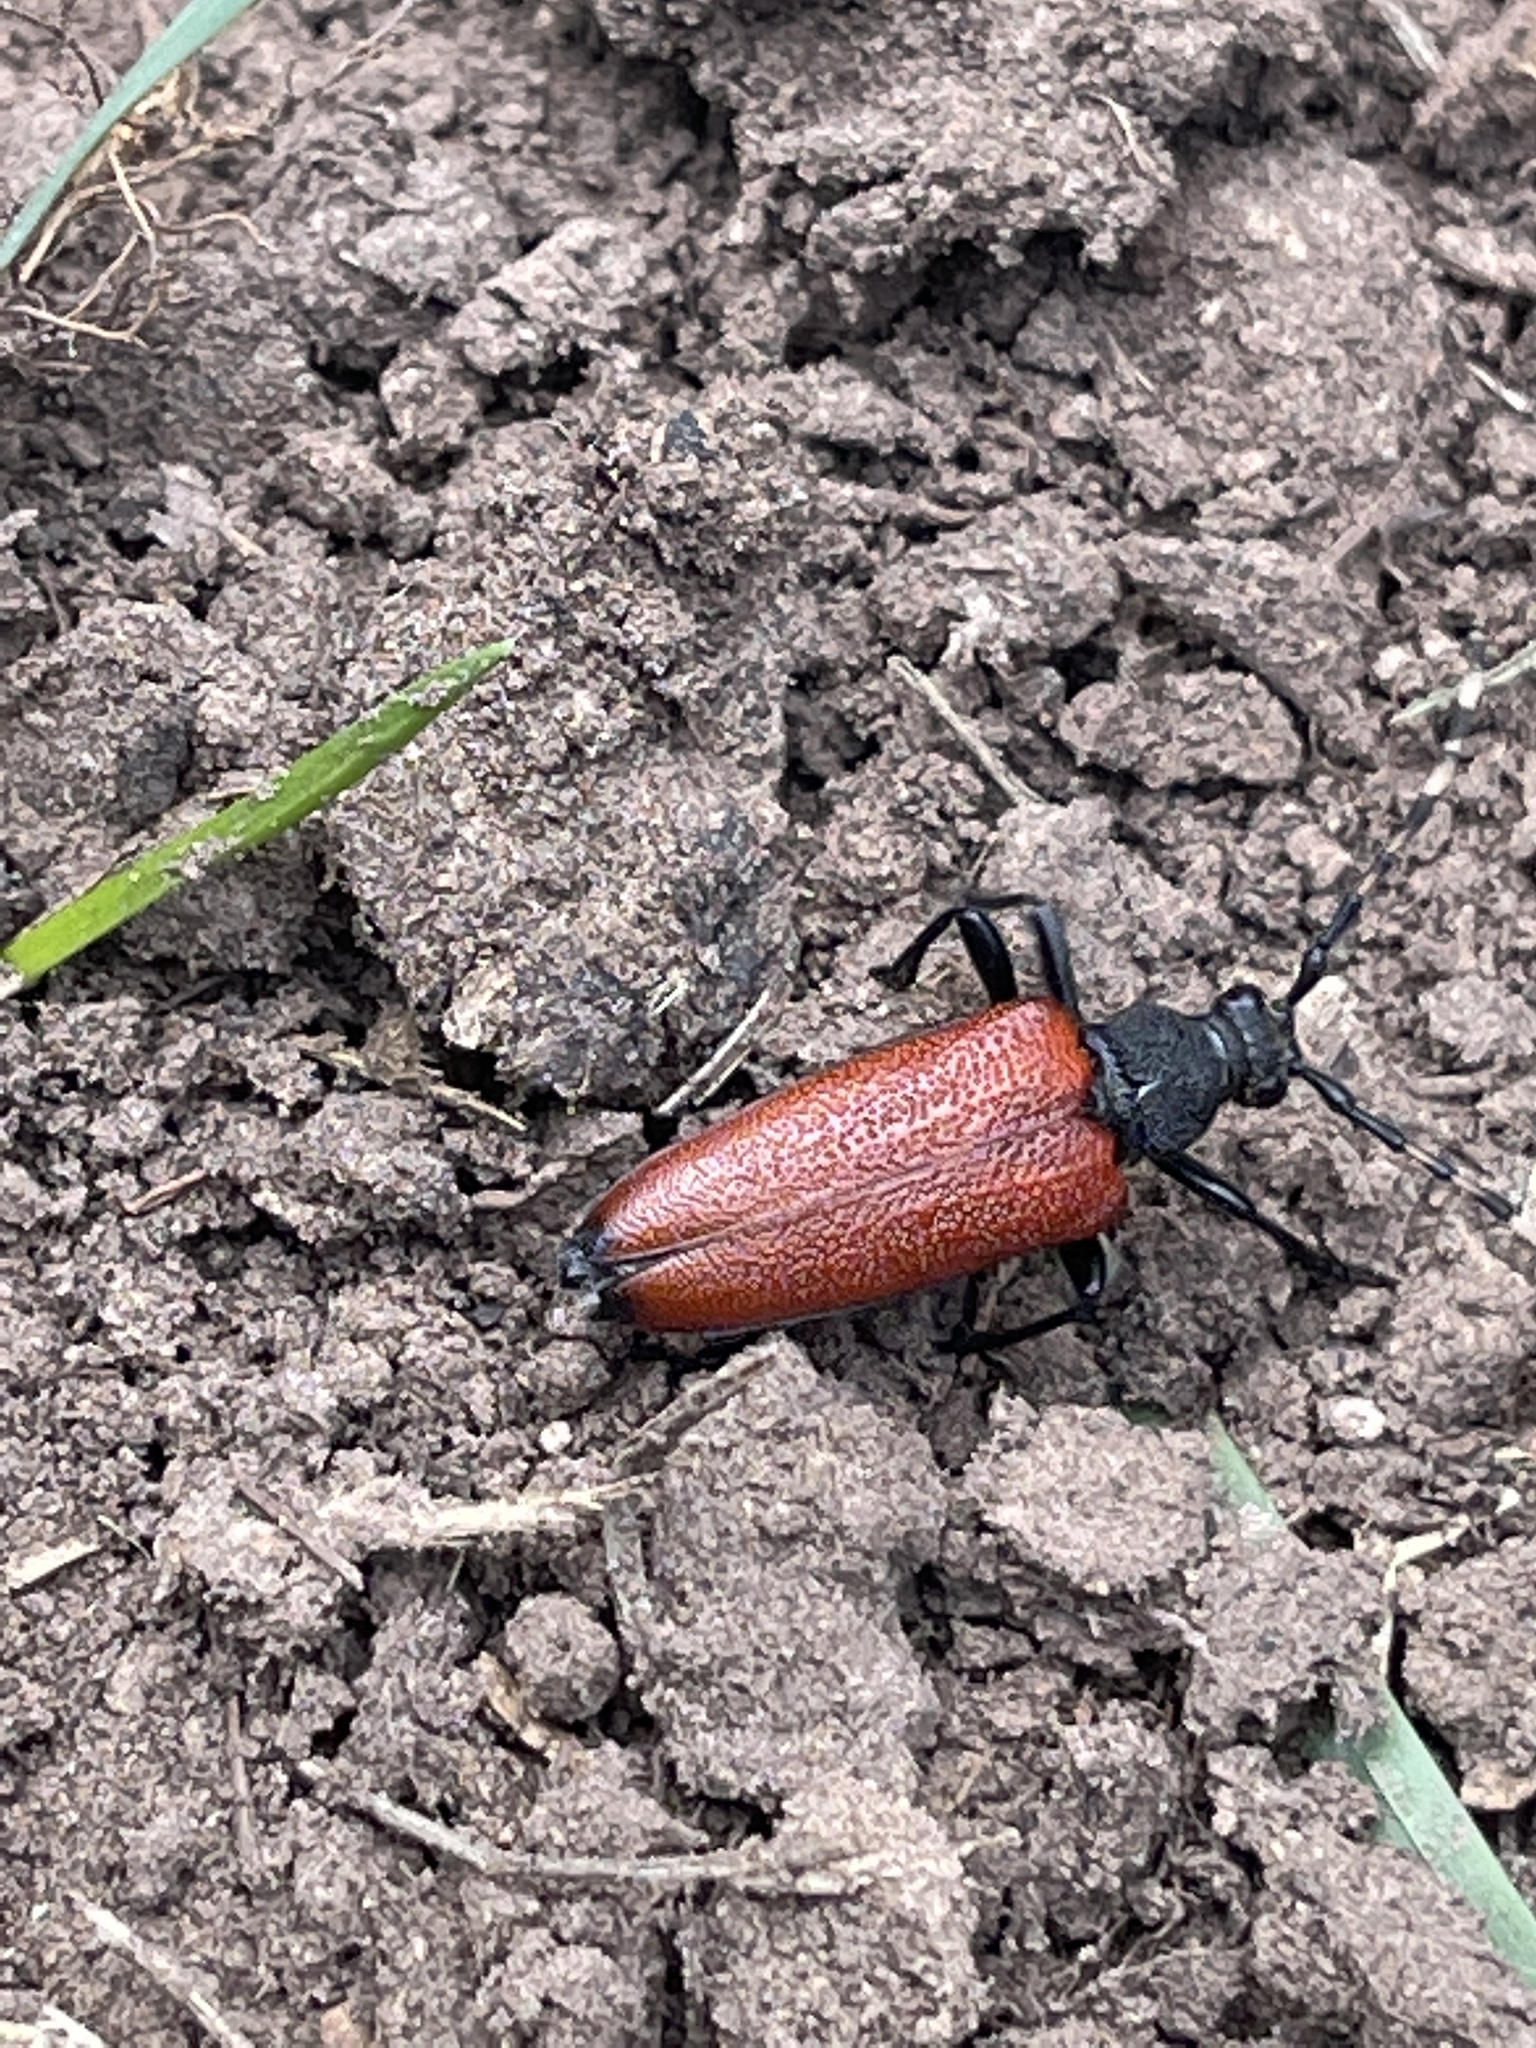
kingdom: Animalia
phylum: Arthropoda
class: Insecta
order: Coleoptera
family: Cerambycidae
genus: Stictoleptura
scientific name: Stictoleptura canadensis
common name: Red-shouldered pine borer
